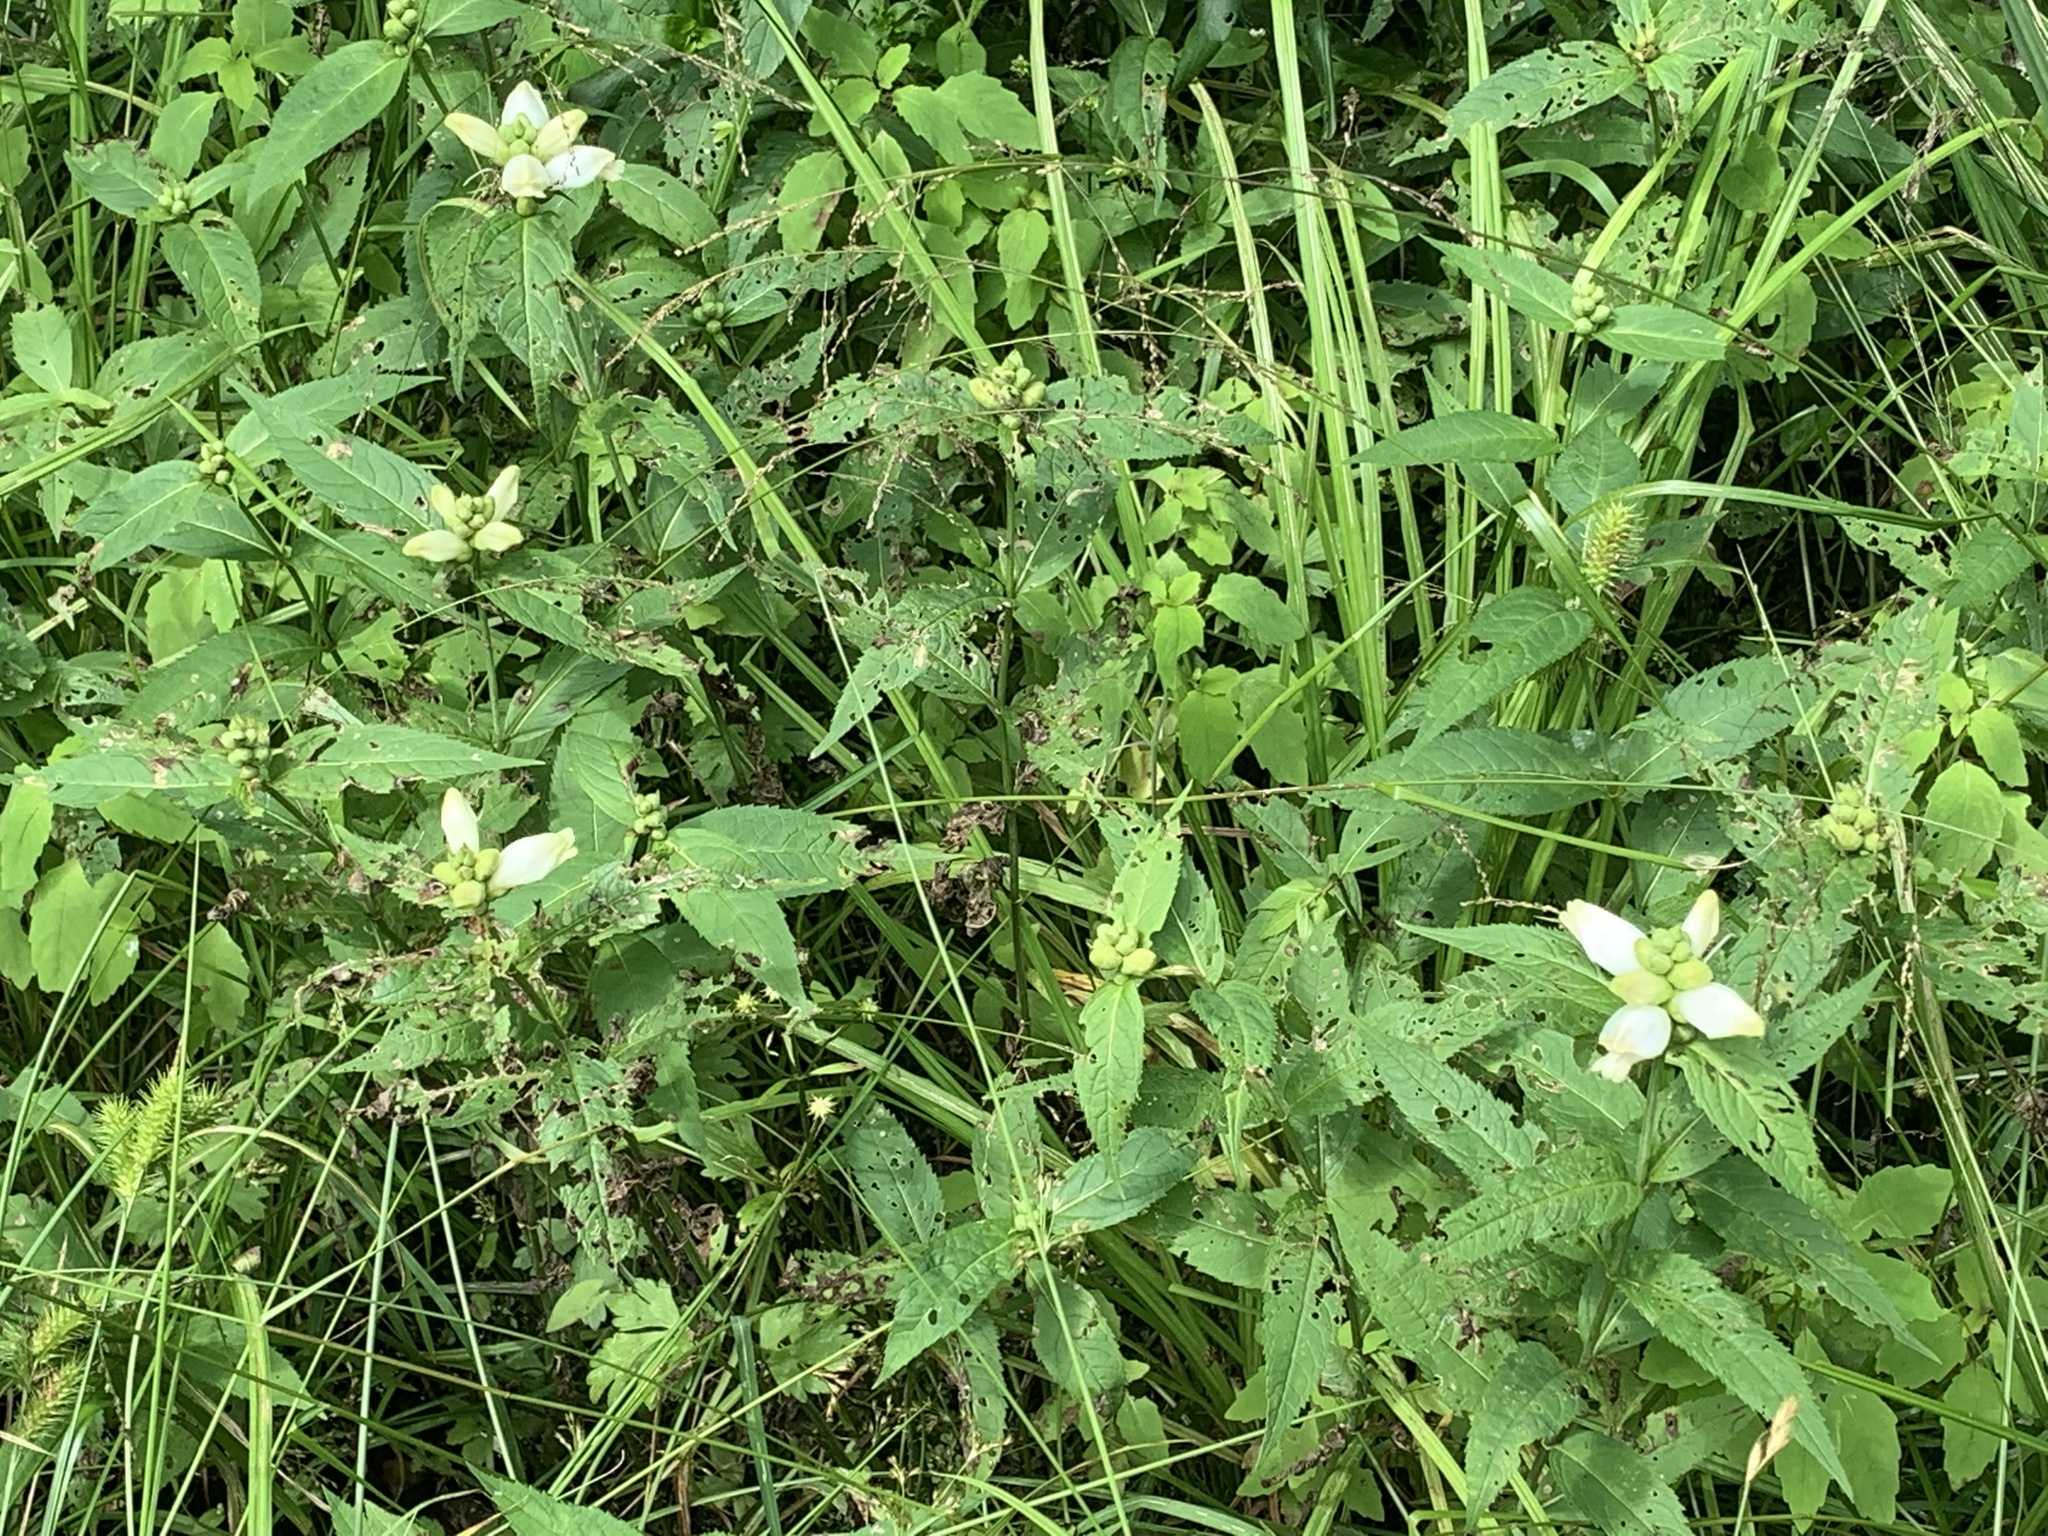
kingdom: Plantae
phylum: Tracheophyta
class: Magnoliopsida
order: Lamiales
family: Plantaginaceae
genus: Chelone
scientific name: Chelone glabra
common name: Snakehead
